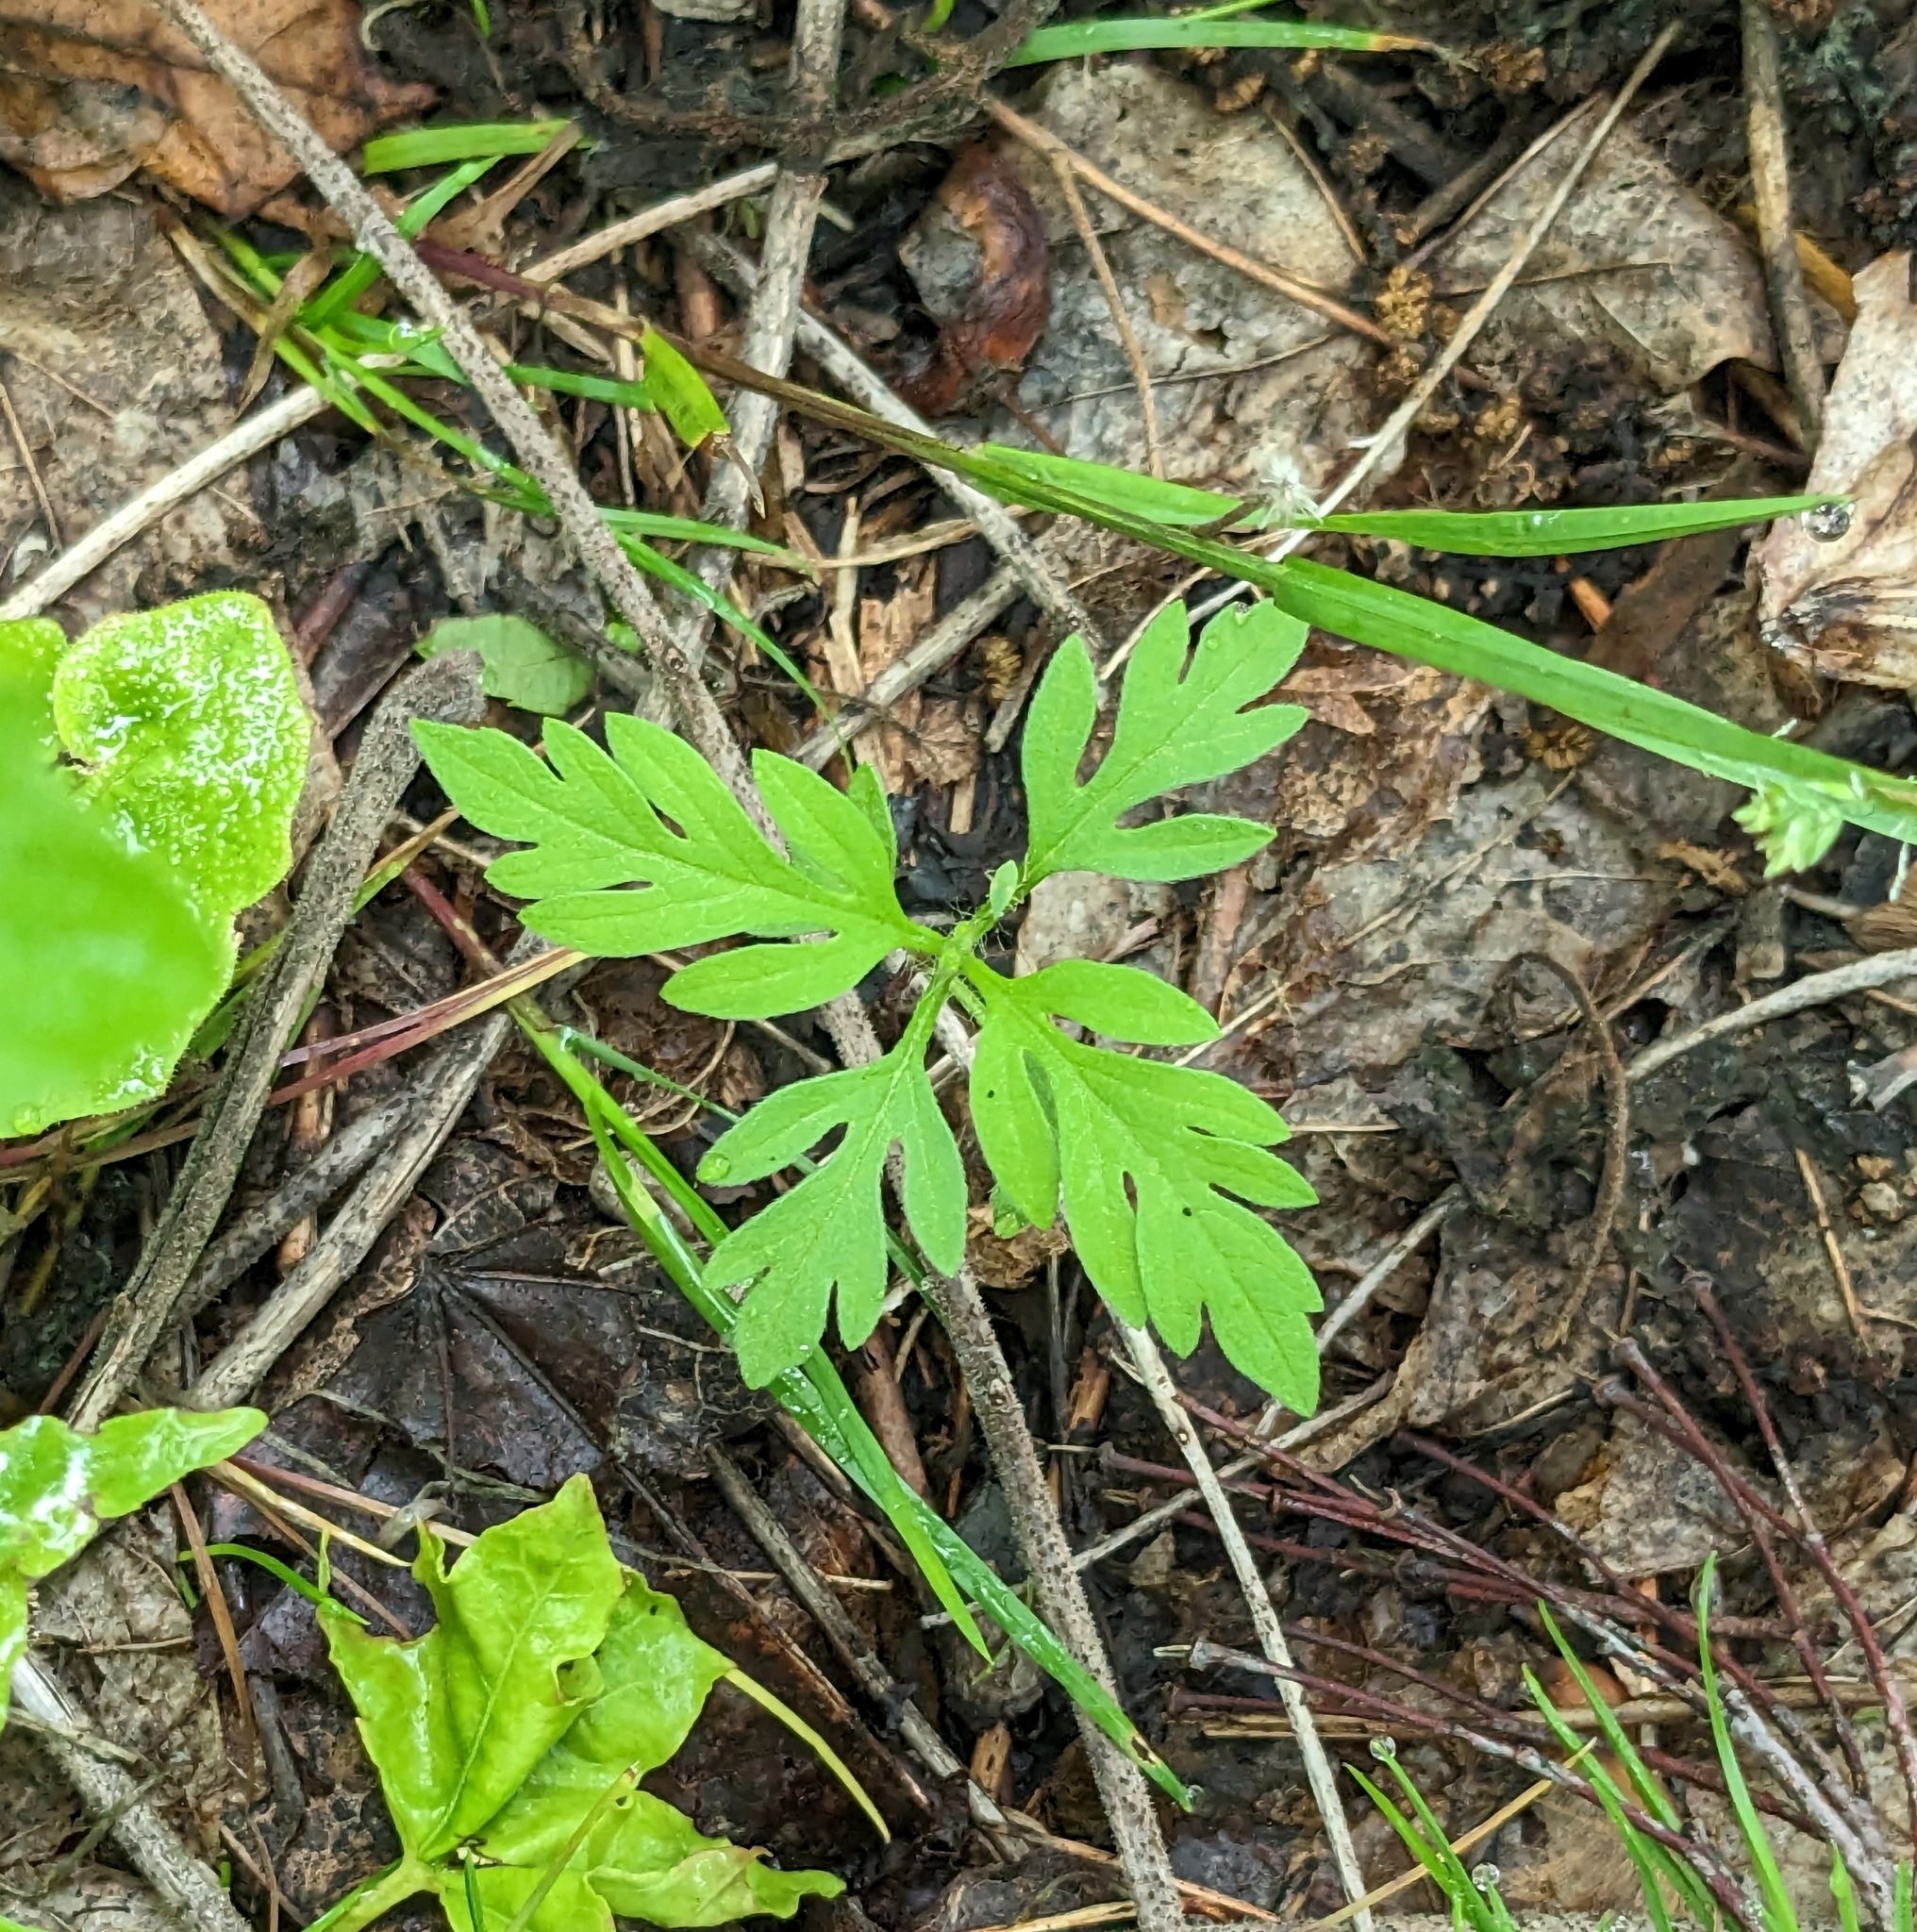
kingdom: Plantae
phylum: Tracheophyta
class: Magnoliopsida
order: Asterales
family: Asteraceae
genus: Ambrosia
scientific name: Ambrosia artemisiifolia
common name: Annual ragweed
